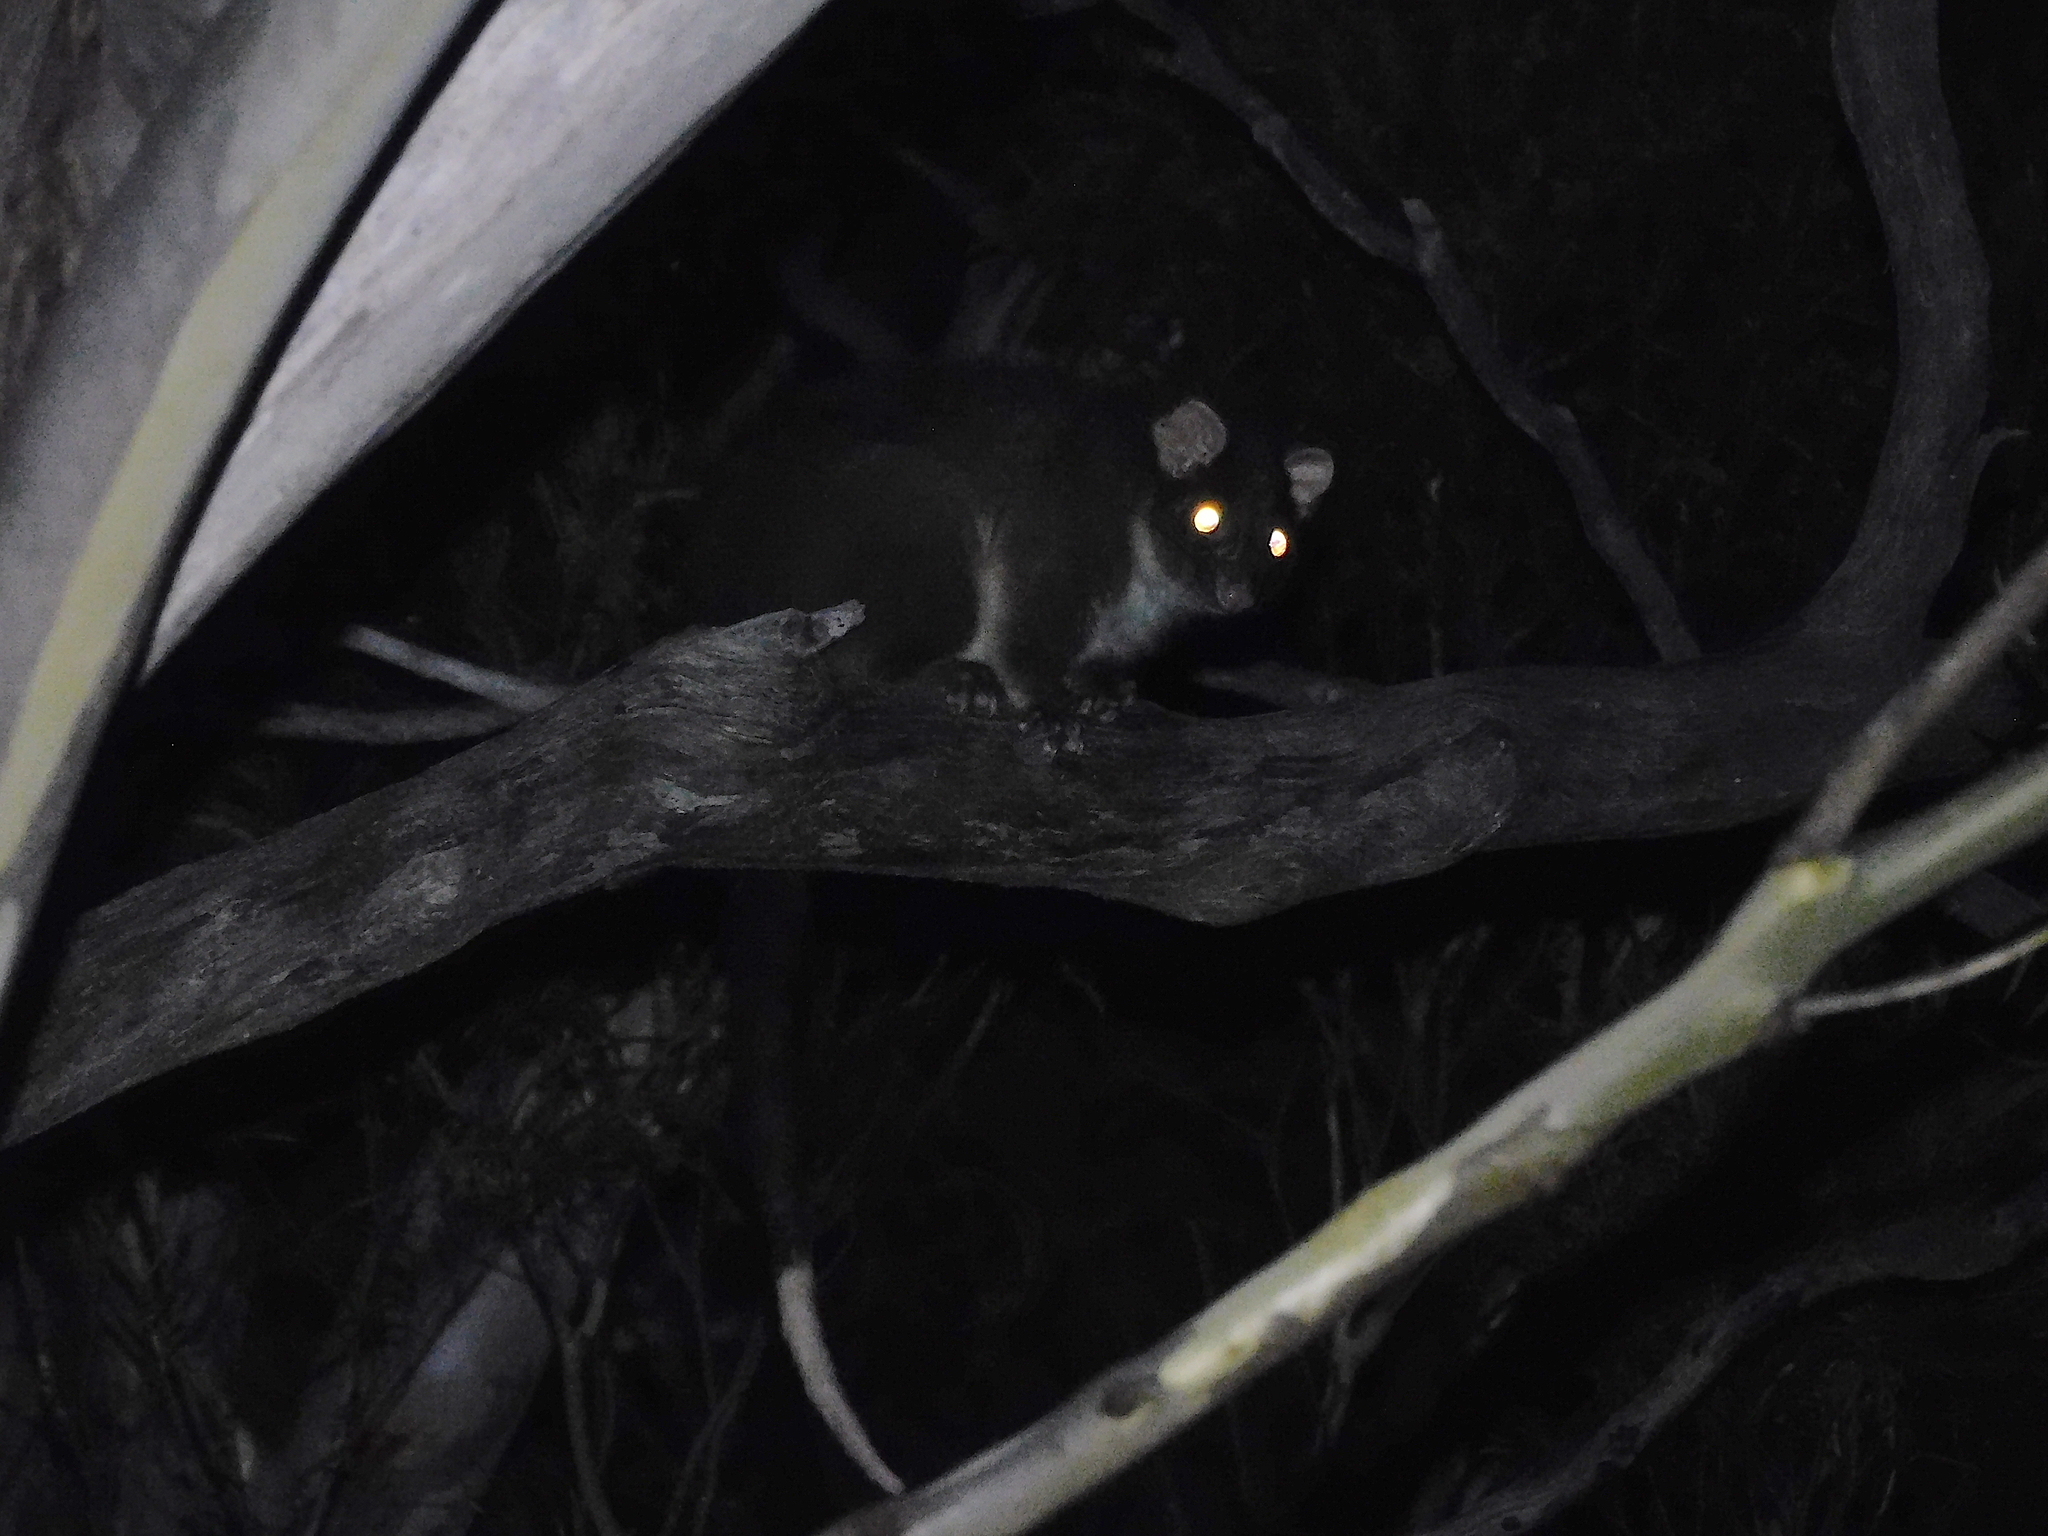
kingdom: Animalia
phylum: Chordata
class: Mammalia
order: Diprotodontia
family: Pseudocheiridae
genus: Pseudocheirus
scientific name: Pseudocheirus peregrinus
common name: Common ringtail possum
